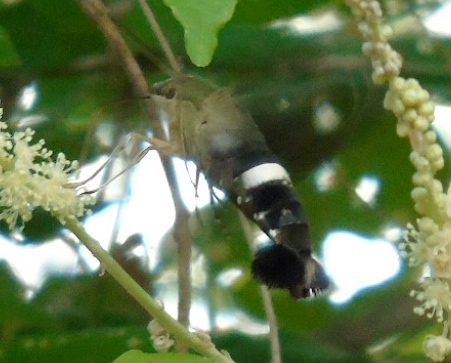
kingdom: Animalia
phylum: Arthropoda
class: Insecta
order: Lepidoptera
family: Sphingidae
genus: Aellopos
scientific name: Aellopos
